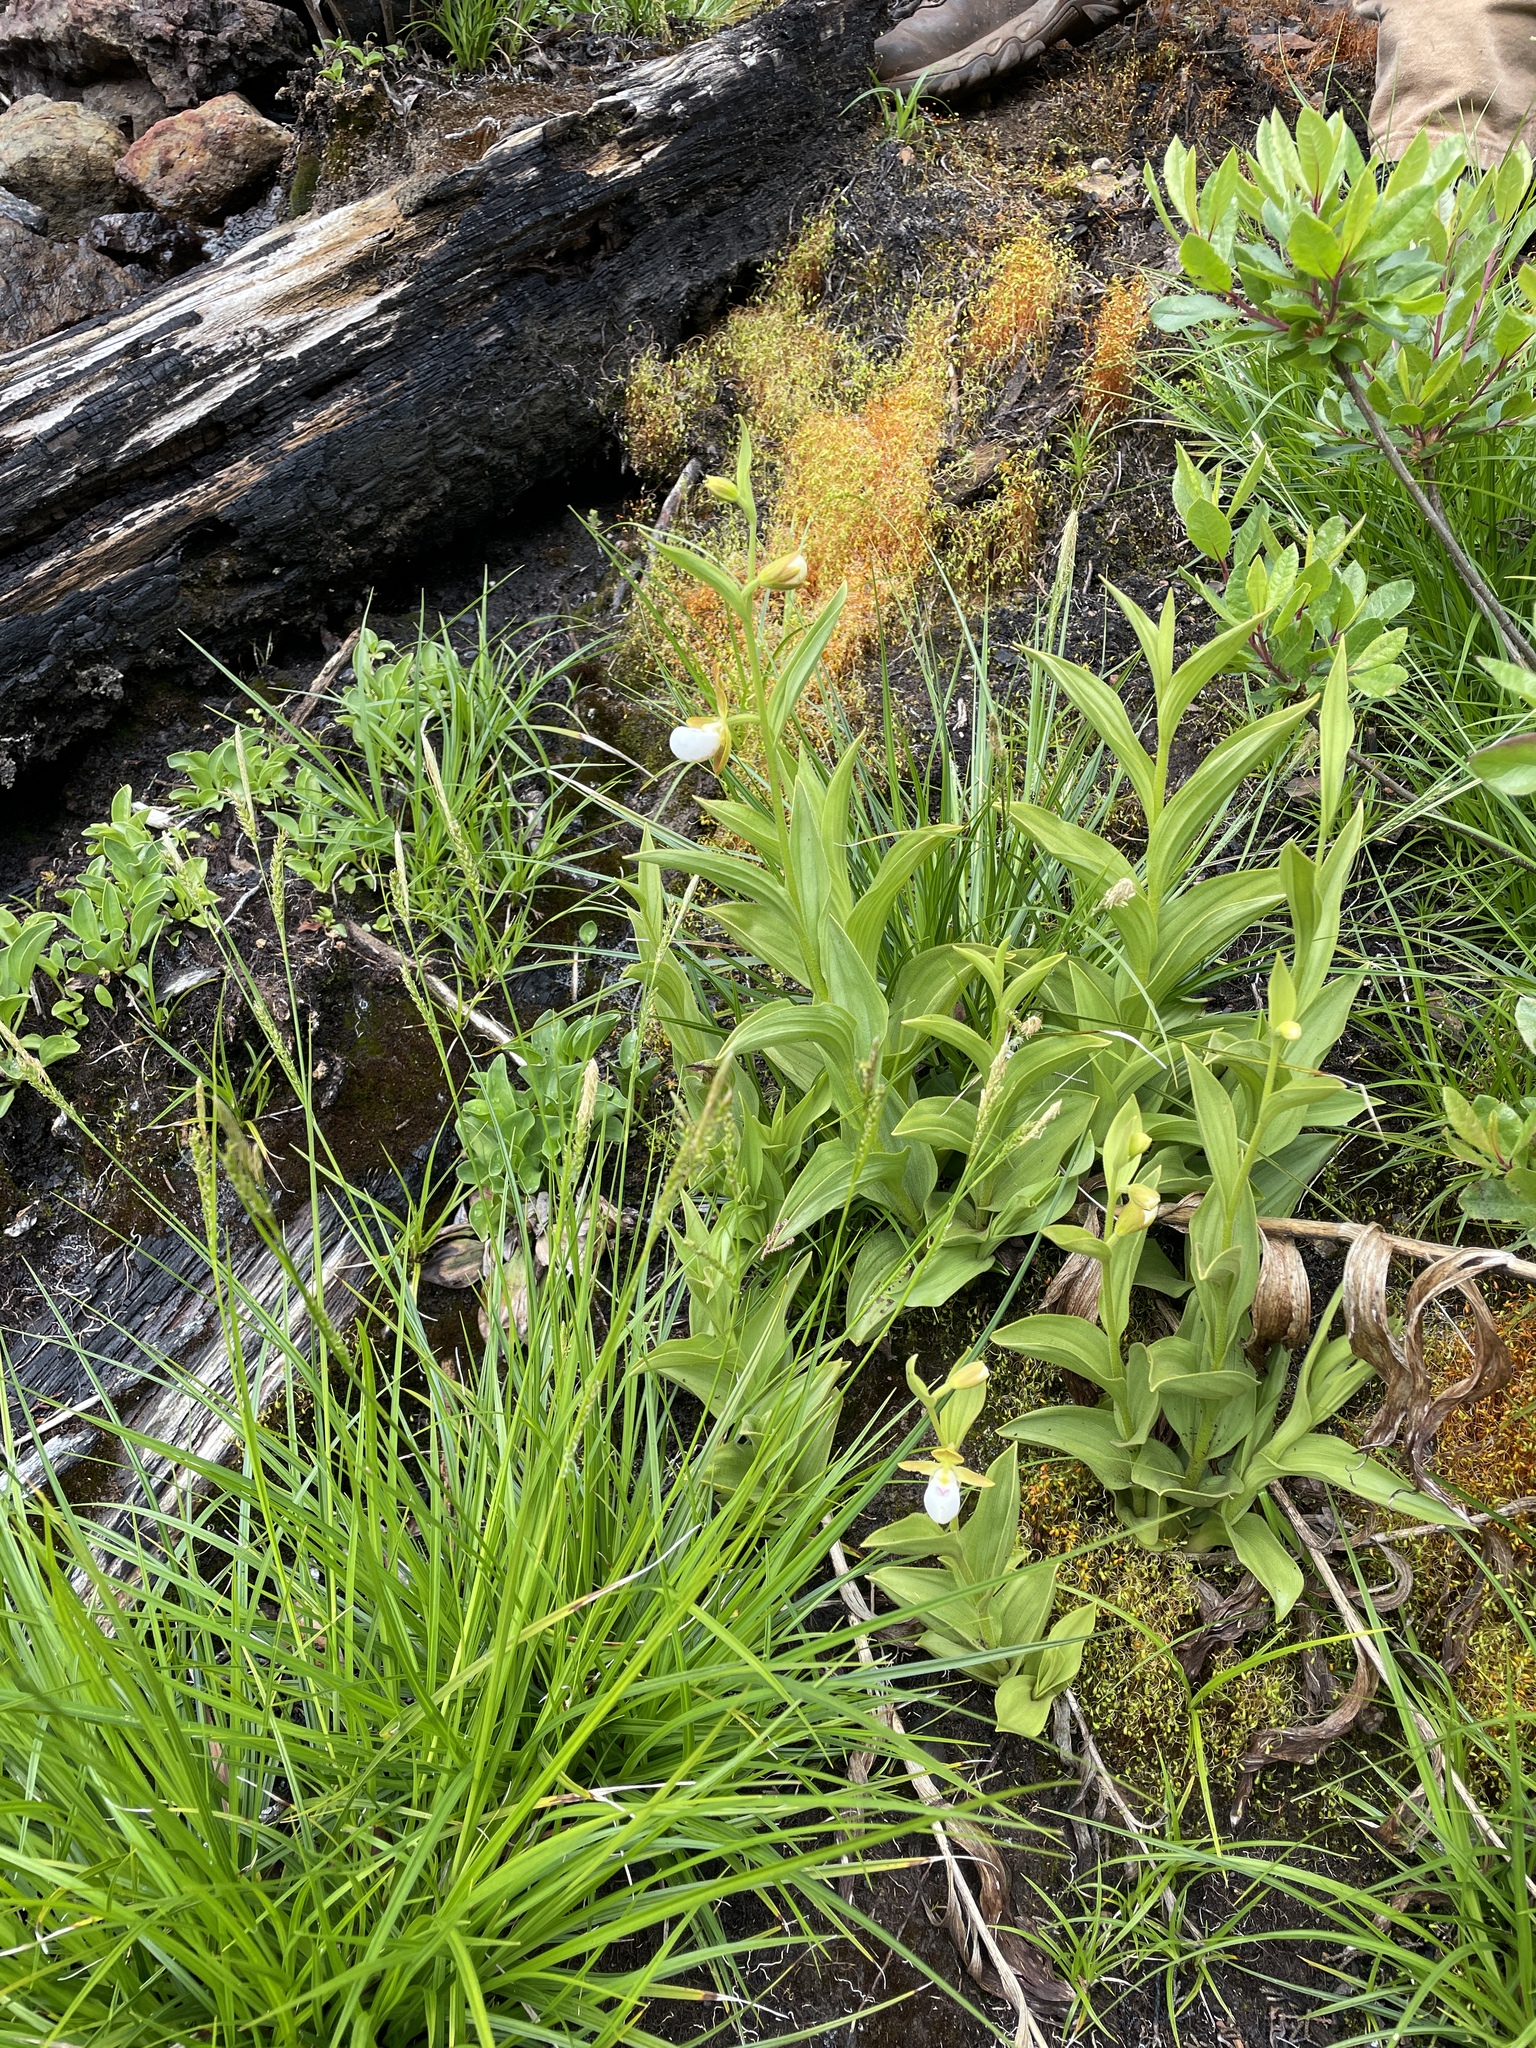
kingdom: Plantae
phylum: Tracheophyta
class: Liliopsida
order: Asparagales
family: Orchidaceae
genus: Cypripedium
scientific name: Cypripedium californicum
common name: California lady's slipper
